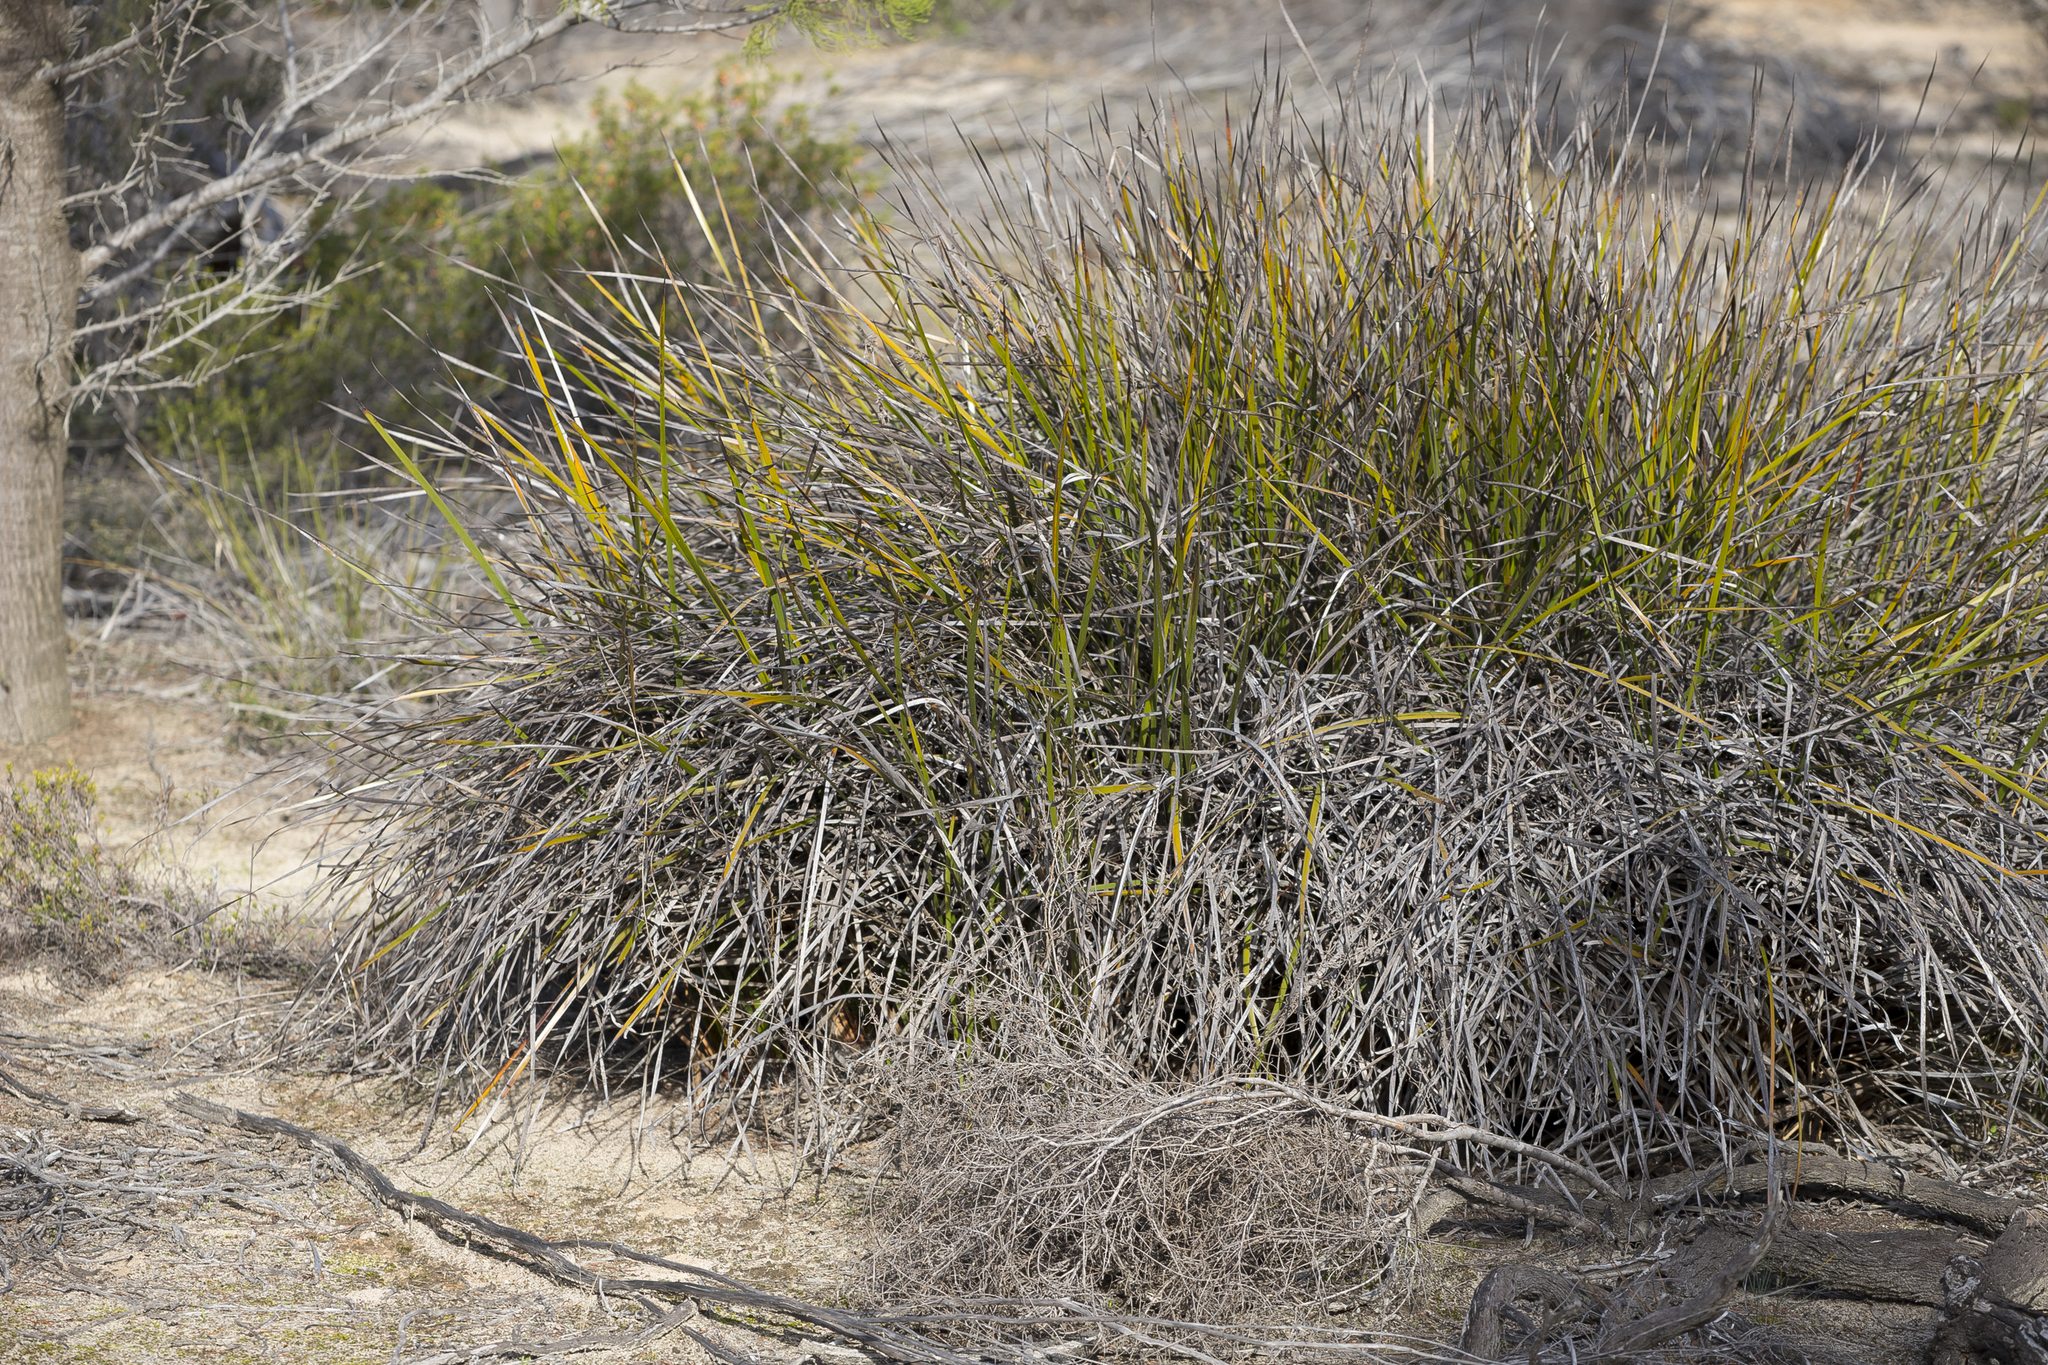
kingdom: Plantae
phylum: Tracheophyta
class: Liliopsida
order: Poales
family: Cyperaceae
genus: Lepidosperma
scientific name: Lepidosperma viscidum
